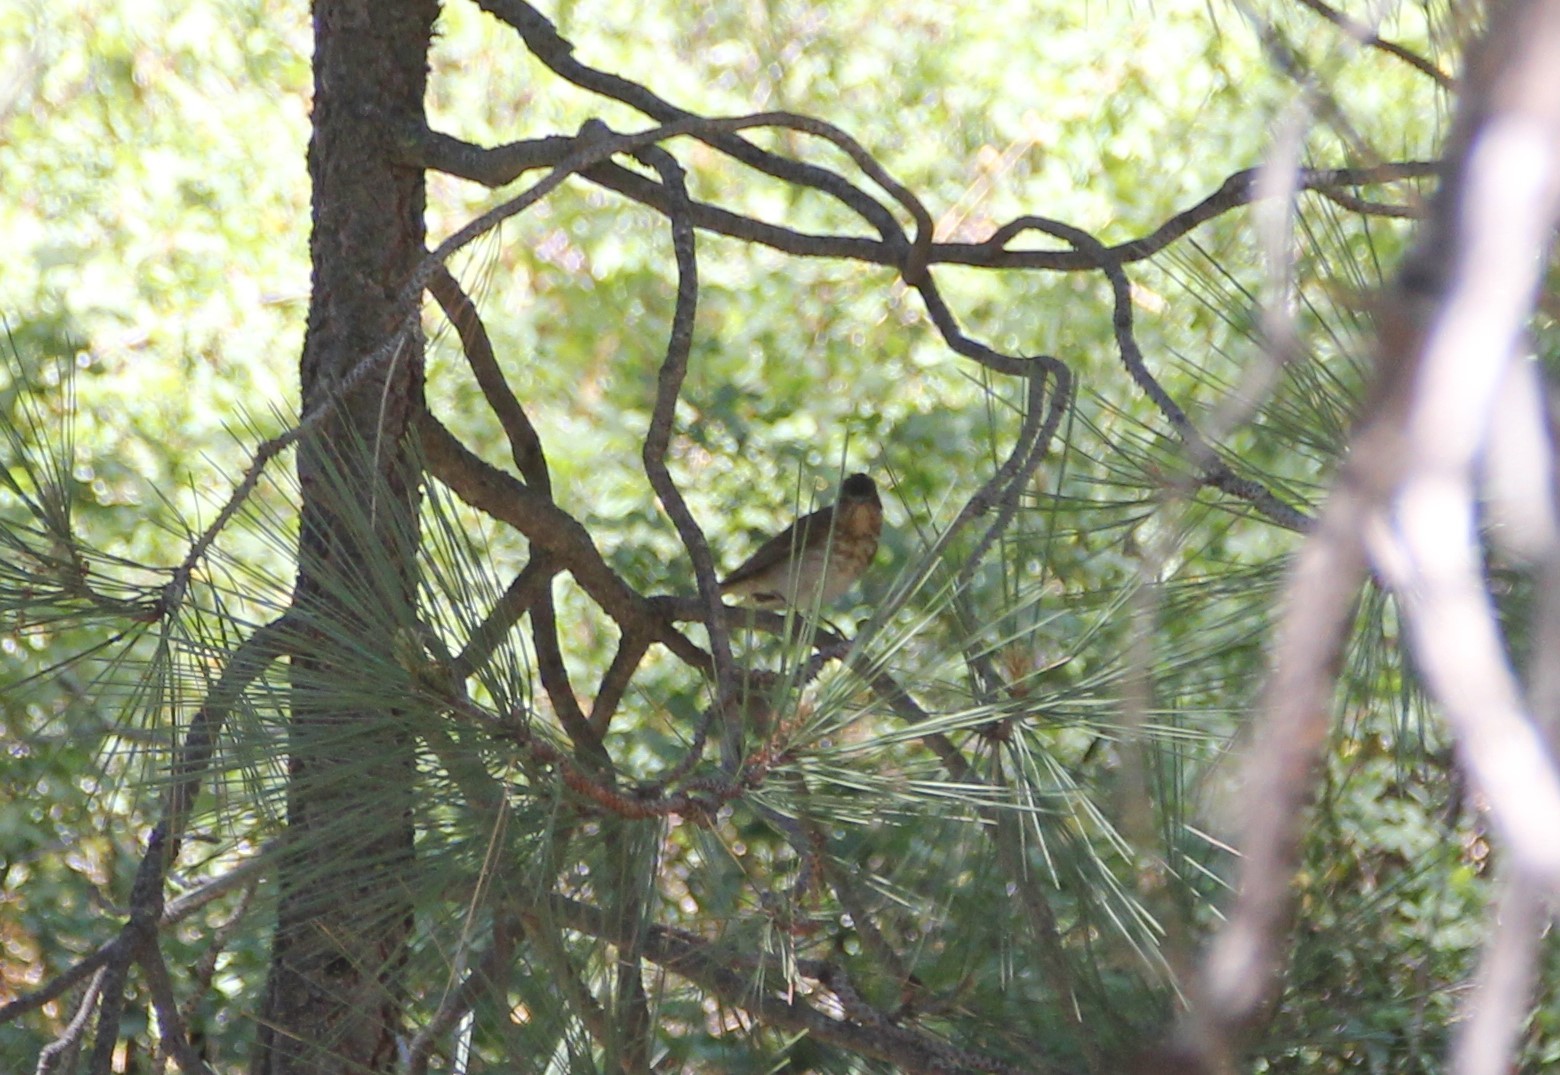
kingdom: Animalia
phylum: Chordata
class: Aves
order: Passeriformes
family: Turdidae
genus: Catharus
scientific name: Catharus ustulatus
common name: Swainson's thrush
